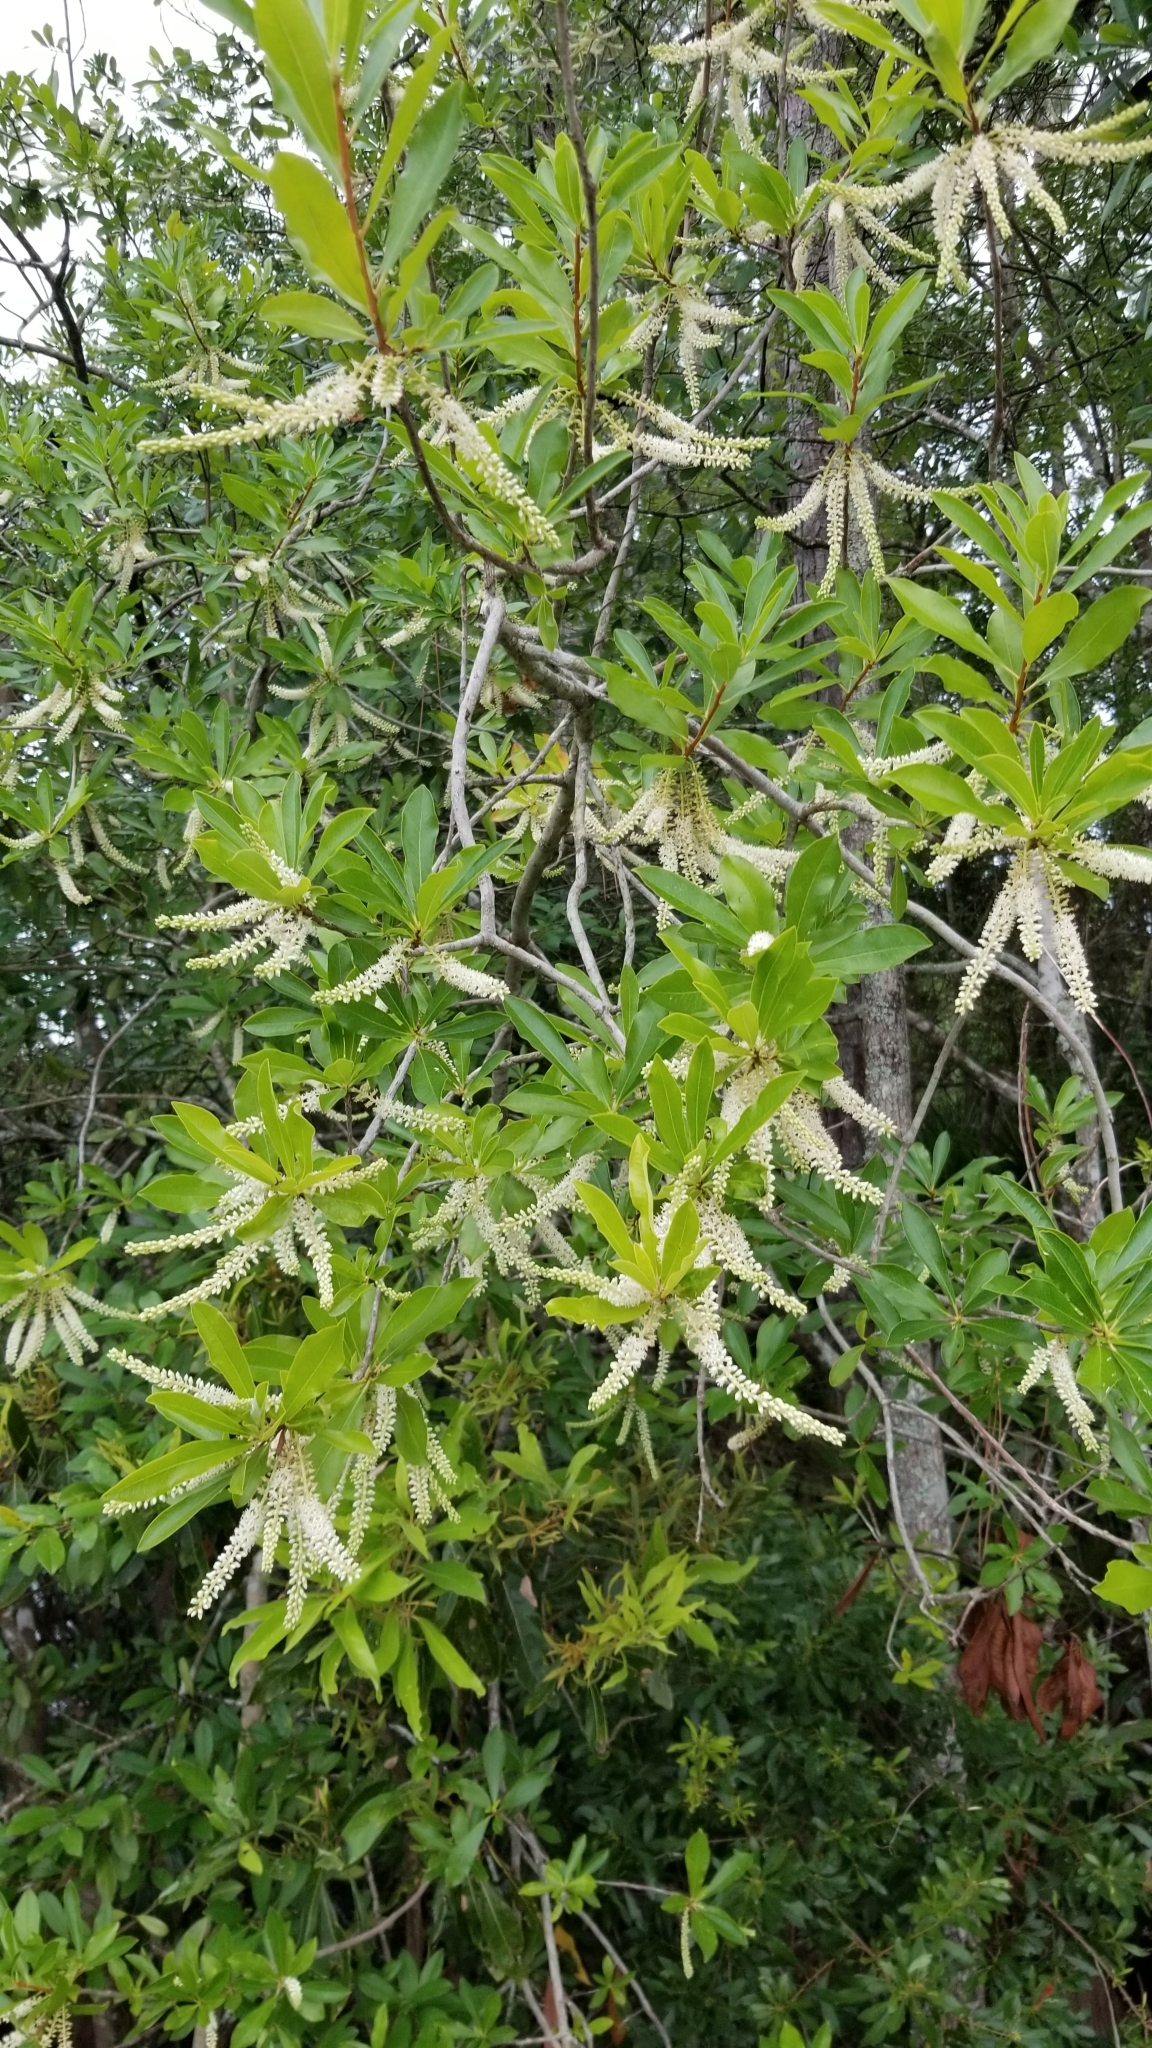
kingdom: Plantae
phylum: Tracheophyta
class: Magnoliopsida
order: Ericales
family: Cyrillaceae
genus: Cyrilla
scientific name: Cyrilla racemiflora
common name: Black titi
